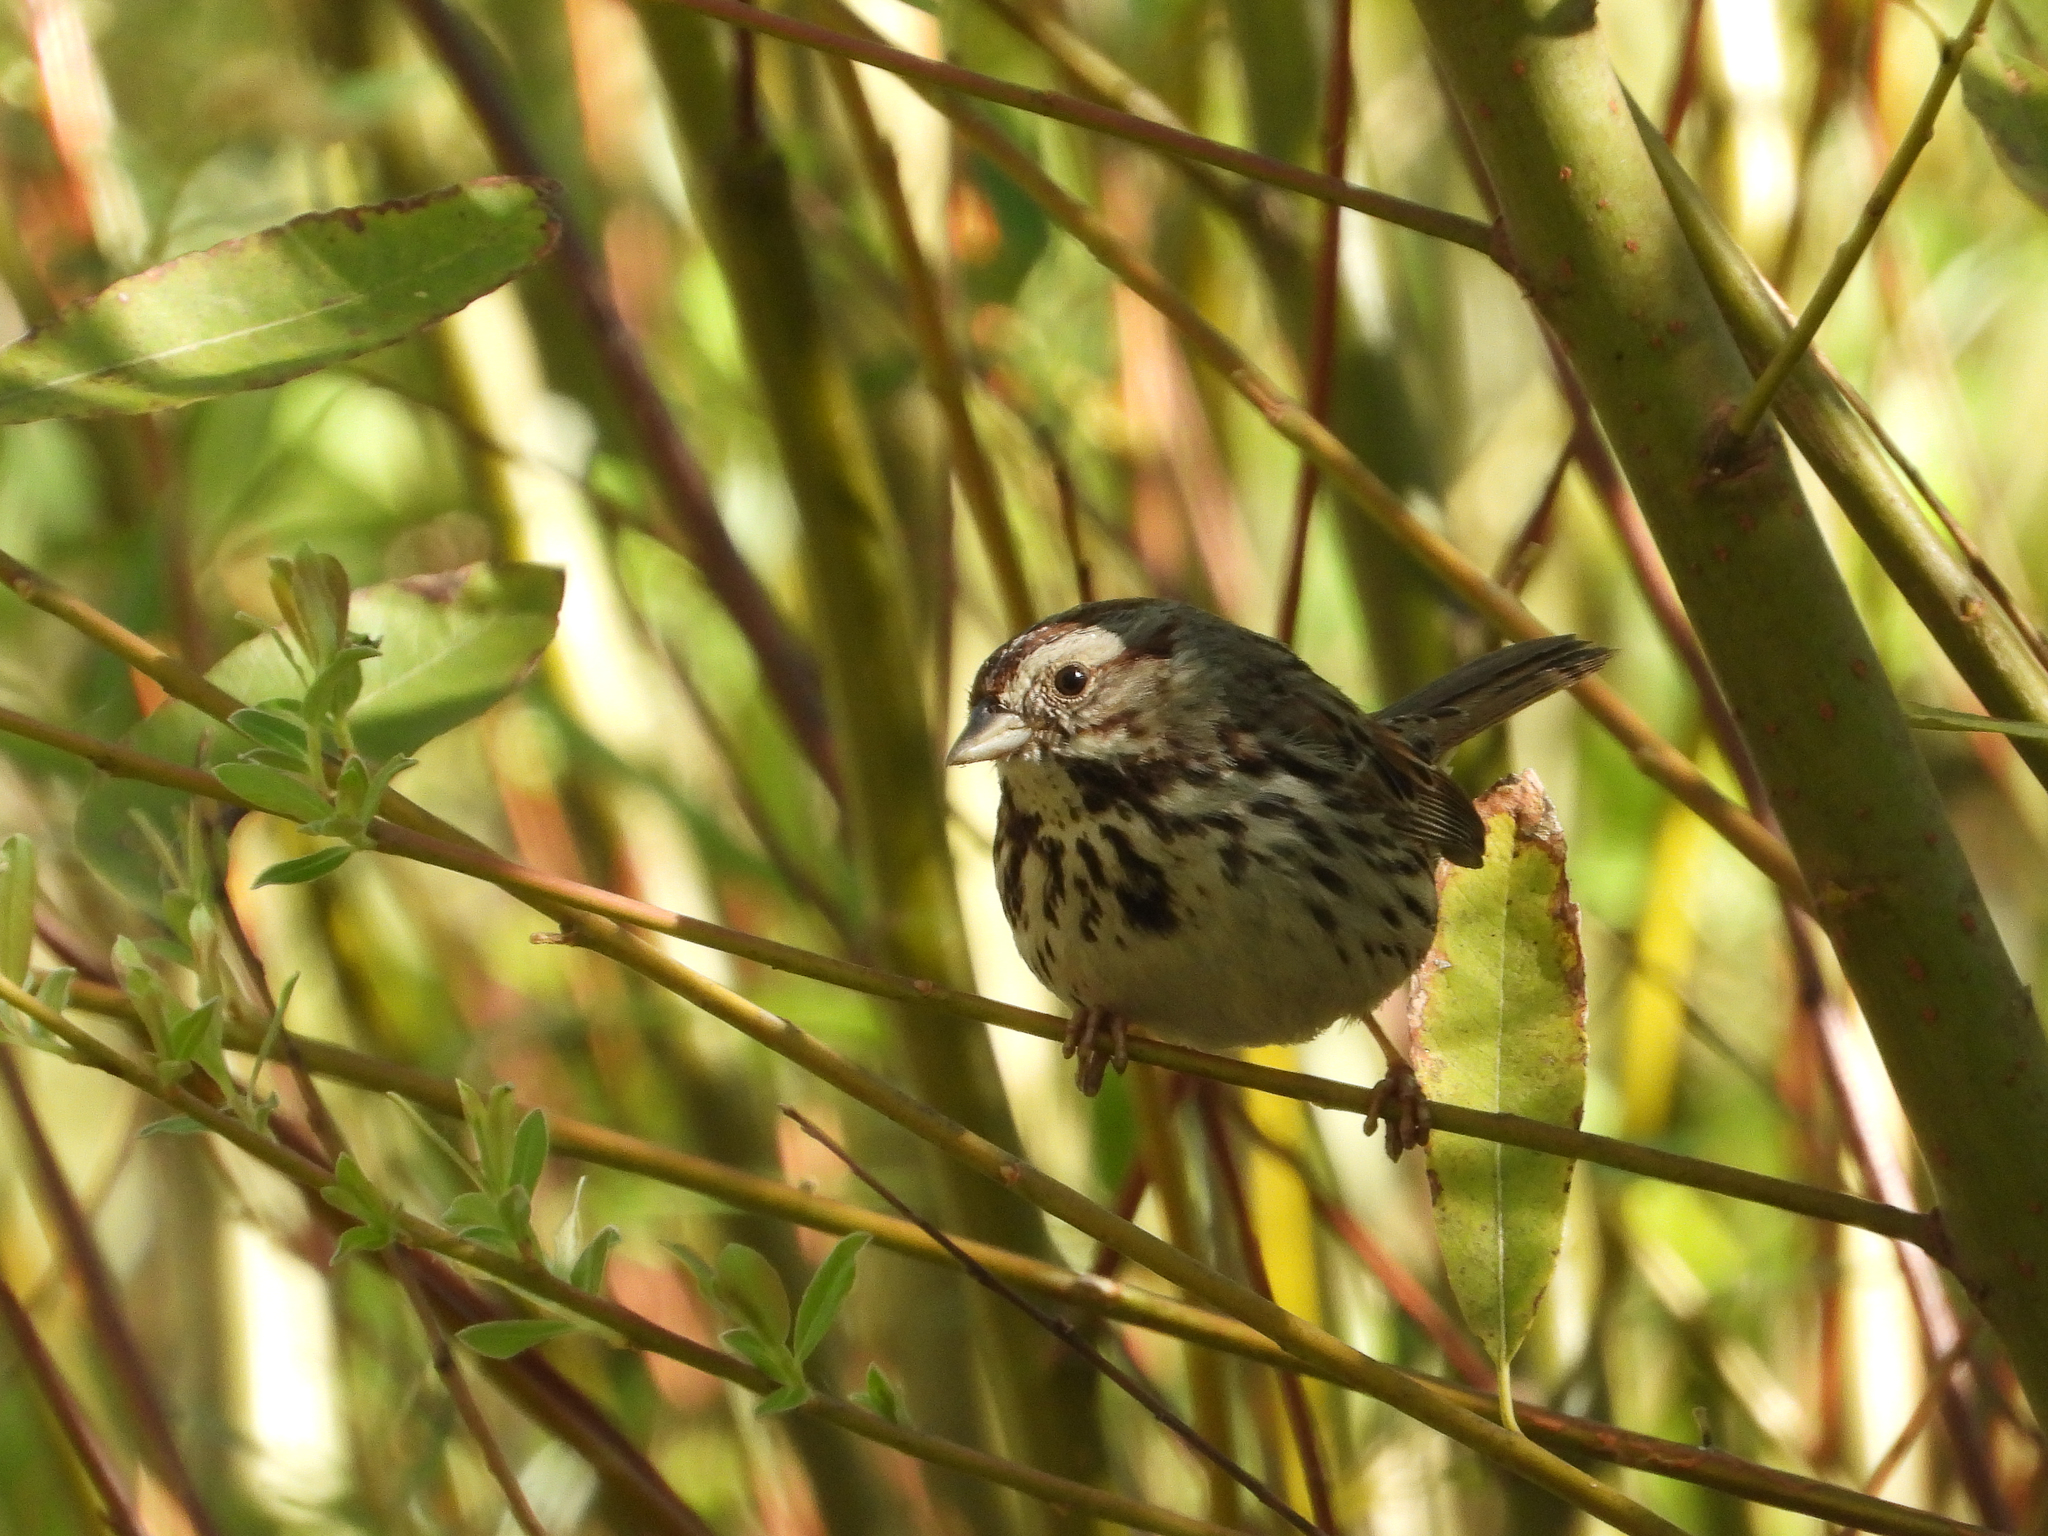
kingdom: Animalia
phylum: Chordata
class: Aves
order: Passeriformes
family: Passerellidae
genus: Melospiza
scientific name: Melospiza melodia
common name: Song sparrow
